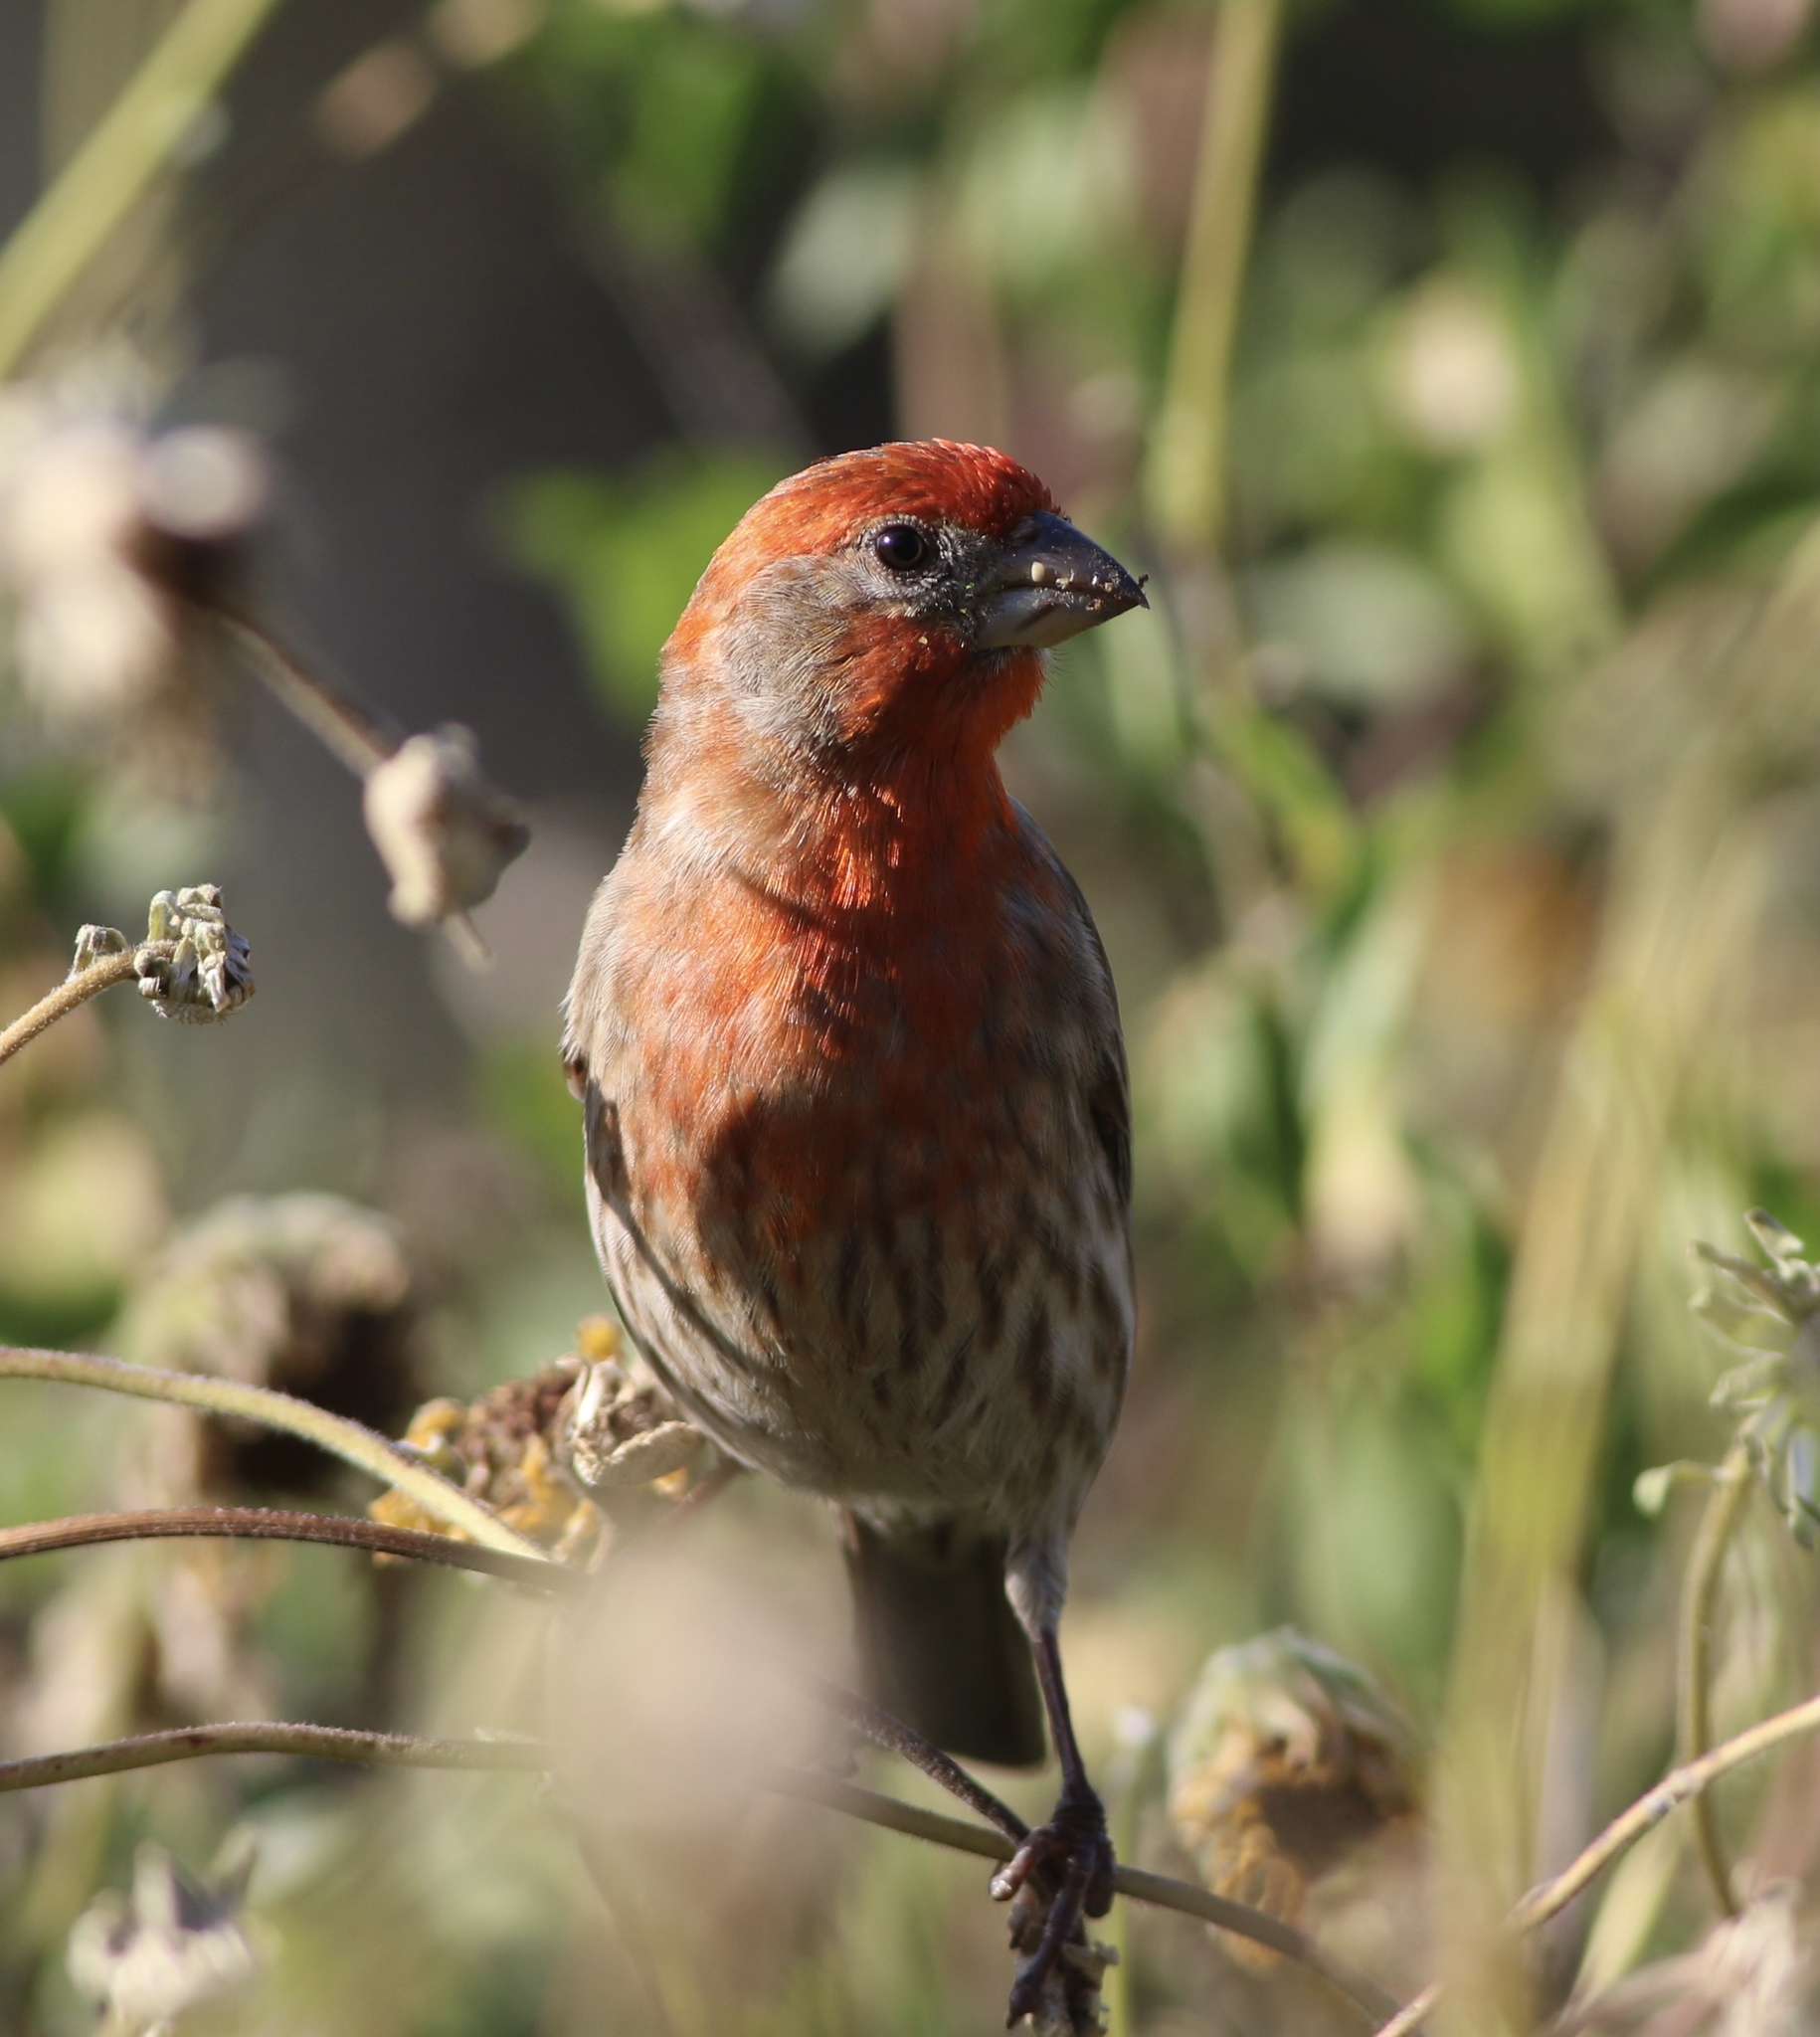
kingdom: Animalia
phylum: Chordata
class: Aves
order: Passeriformes
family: Fringillidae
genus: Haemorhous
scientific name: Haemorhous mexicanus
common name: House finch
